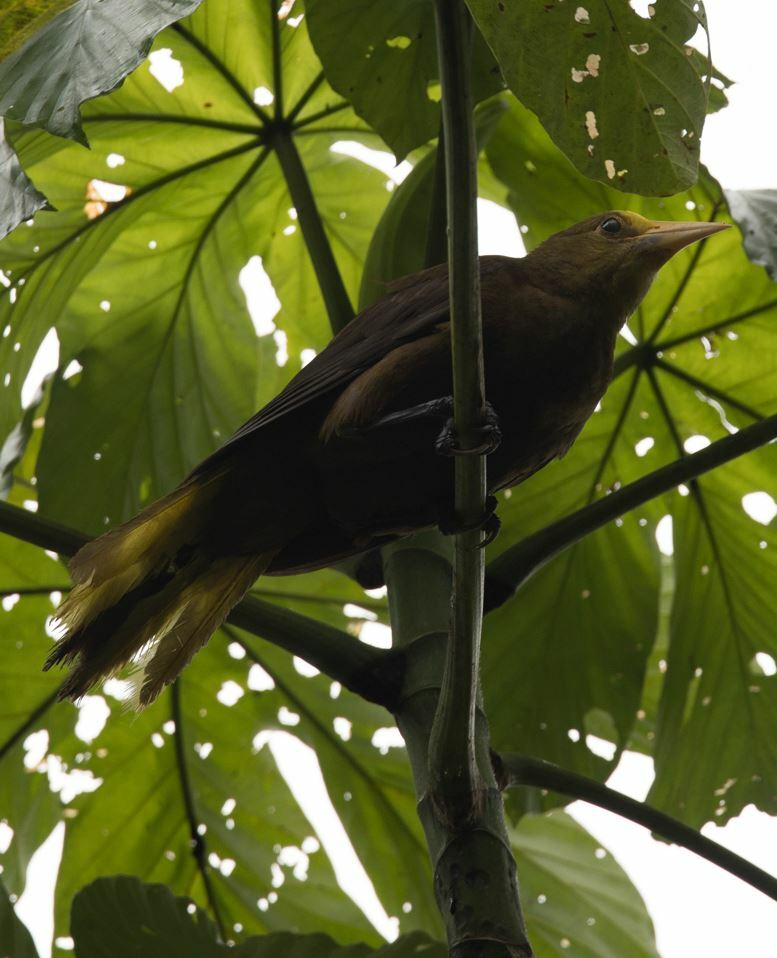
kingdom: Animalia
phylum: Chordata
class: Aves
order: Passeriformes
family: Icteridae
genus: Psarocolius
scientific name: Psarocolius angustifrons
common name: Russet-backed oropendola
